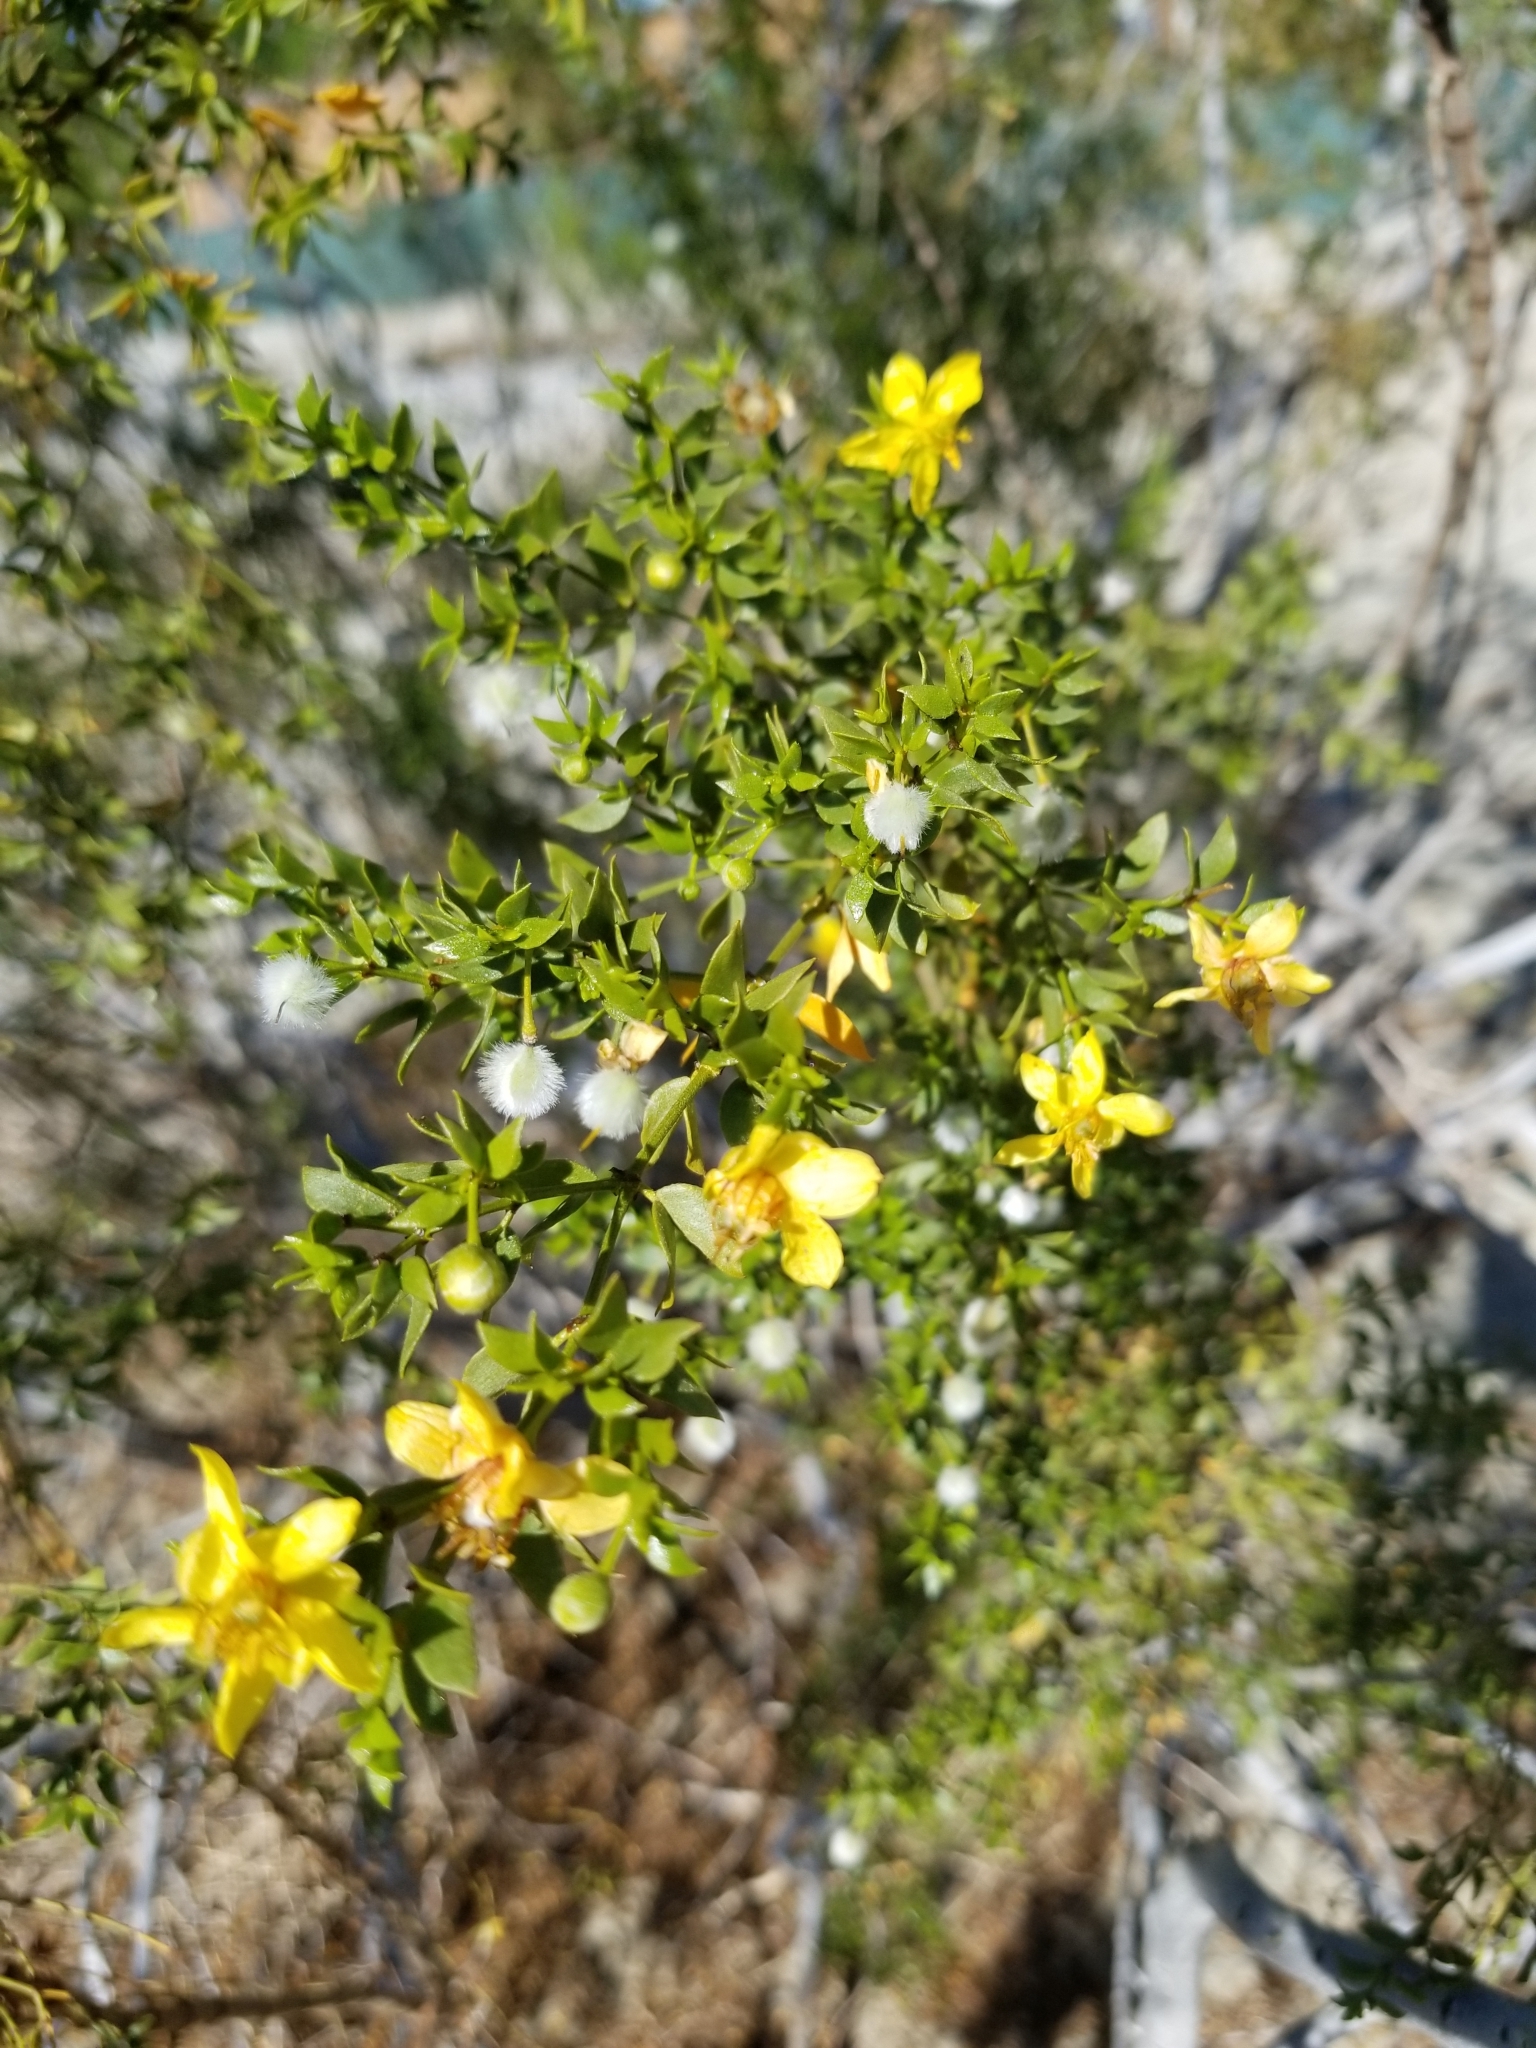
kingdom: Plantae
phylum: Tracheophyta
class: Magnoliopsida
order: Zygophyllales
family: Zygophyllaceae
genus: Larrea
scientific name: Larrea tridentata
